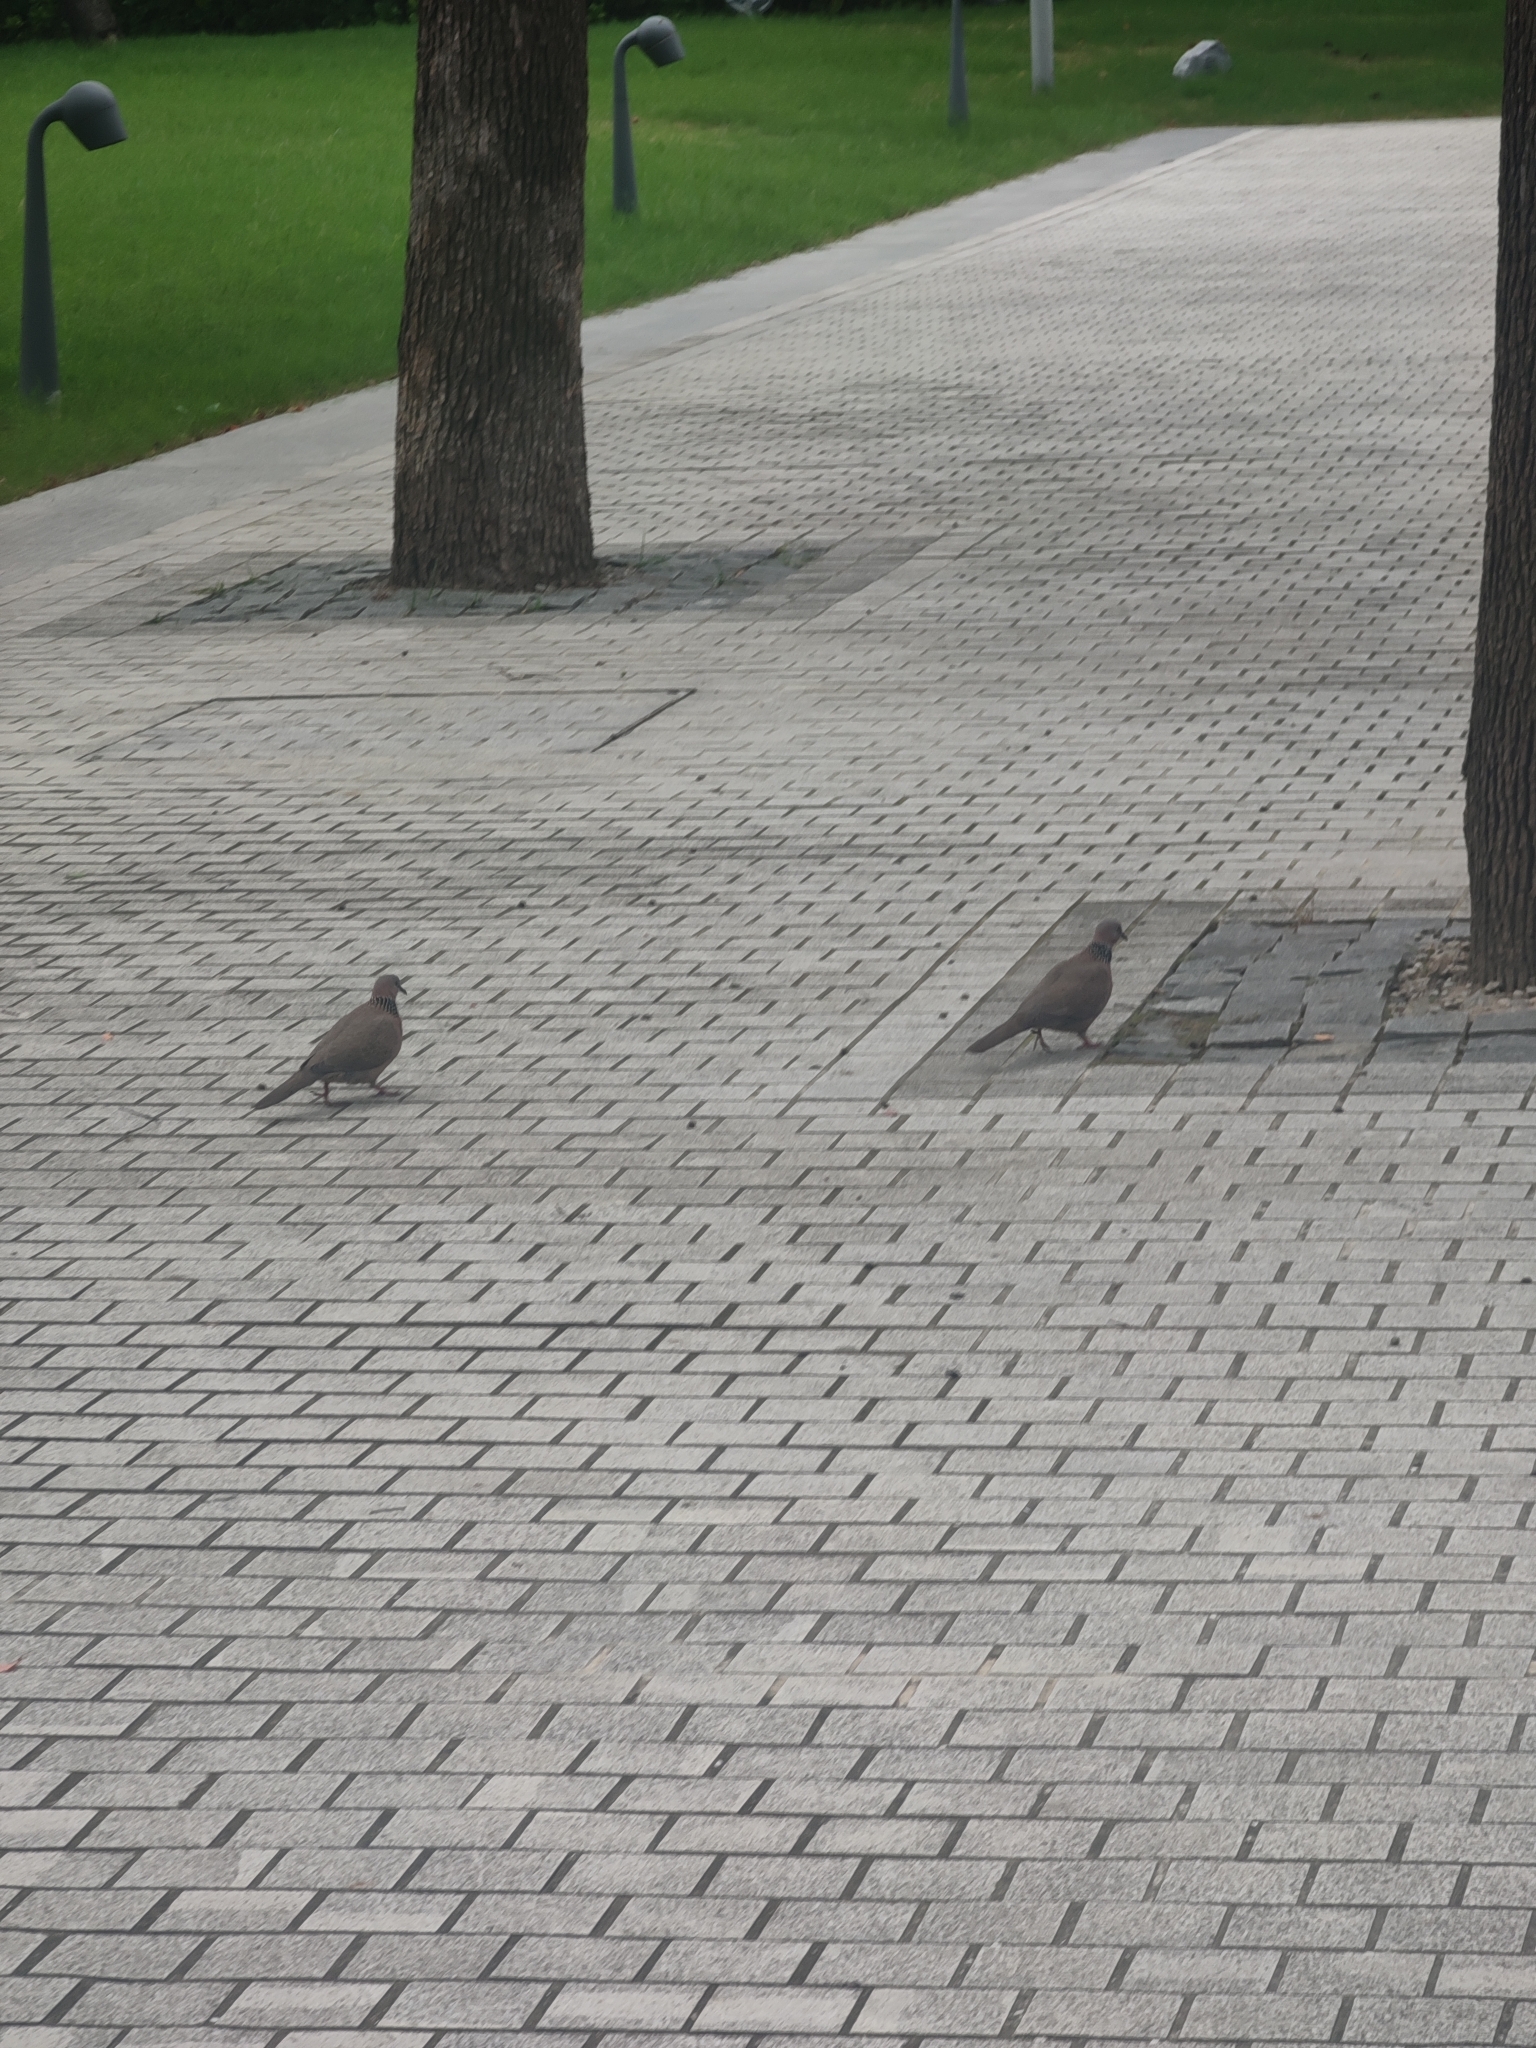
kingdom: Animalia
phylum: Chordata
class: Aves
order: Columbiformes
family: Columbidae
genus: Spilopelia
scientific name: Spilopelia chinensis
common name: Spotted dove
